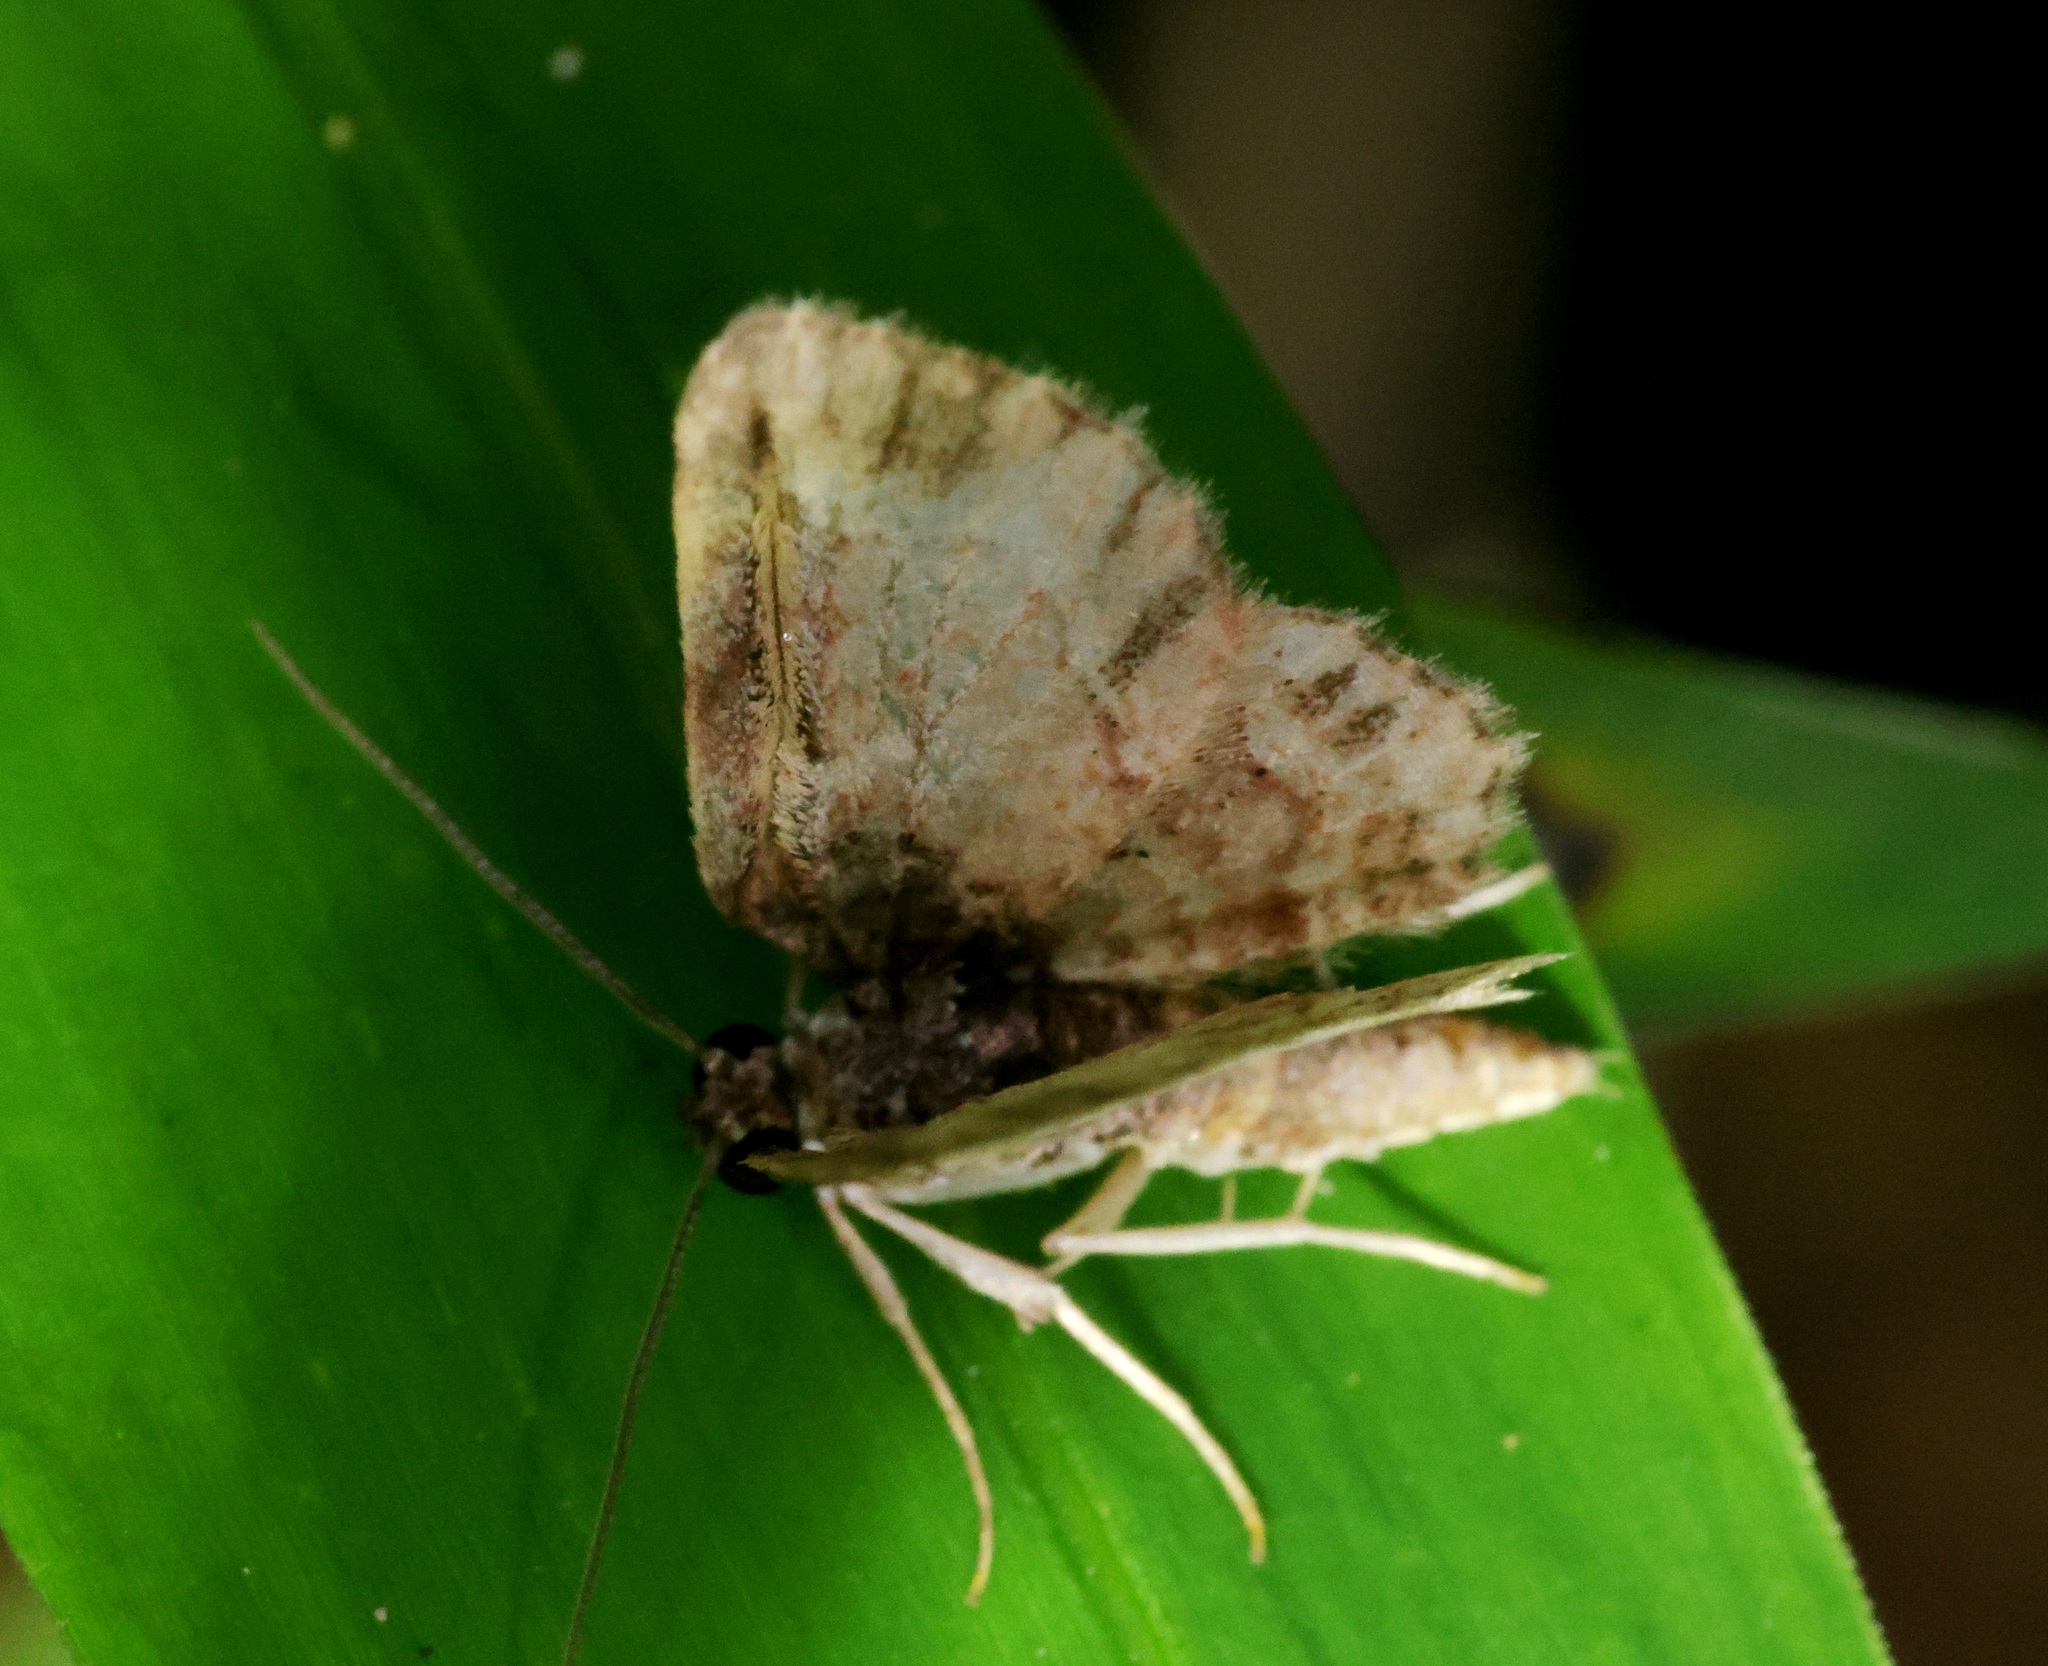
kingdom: Animalia
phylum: Arthropoda
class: Insecta
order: Lepidoptera
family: Geometridae
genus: Axinoptera
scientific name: Axinoptera orphnobathra
